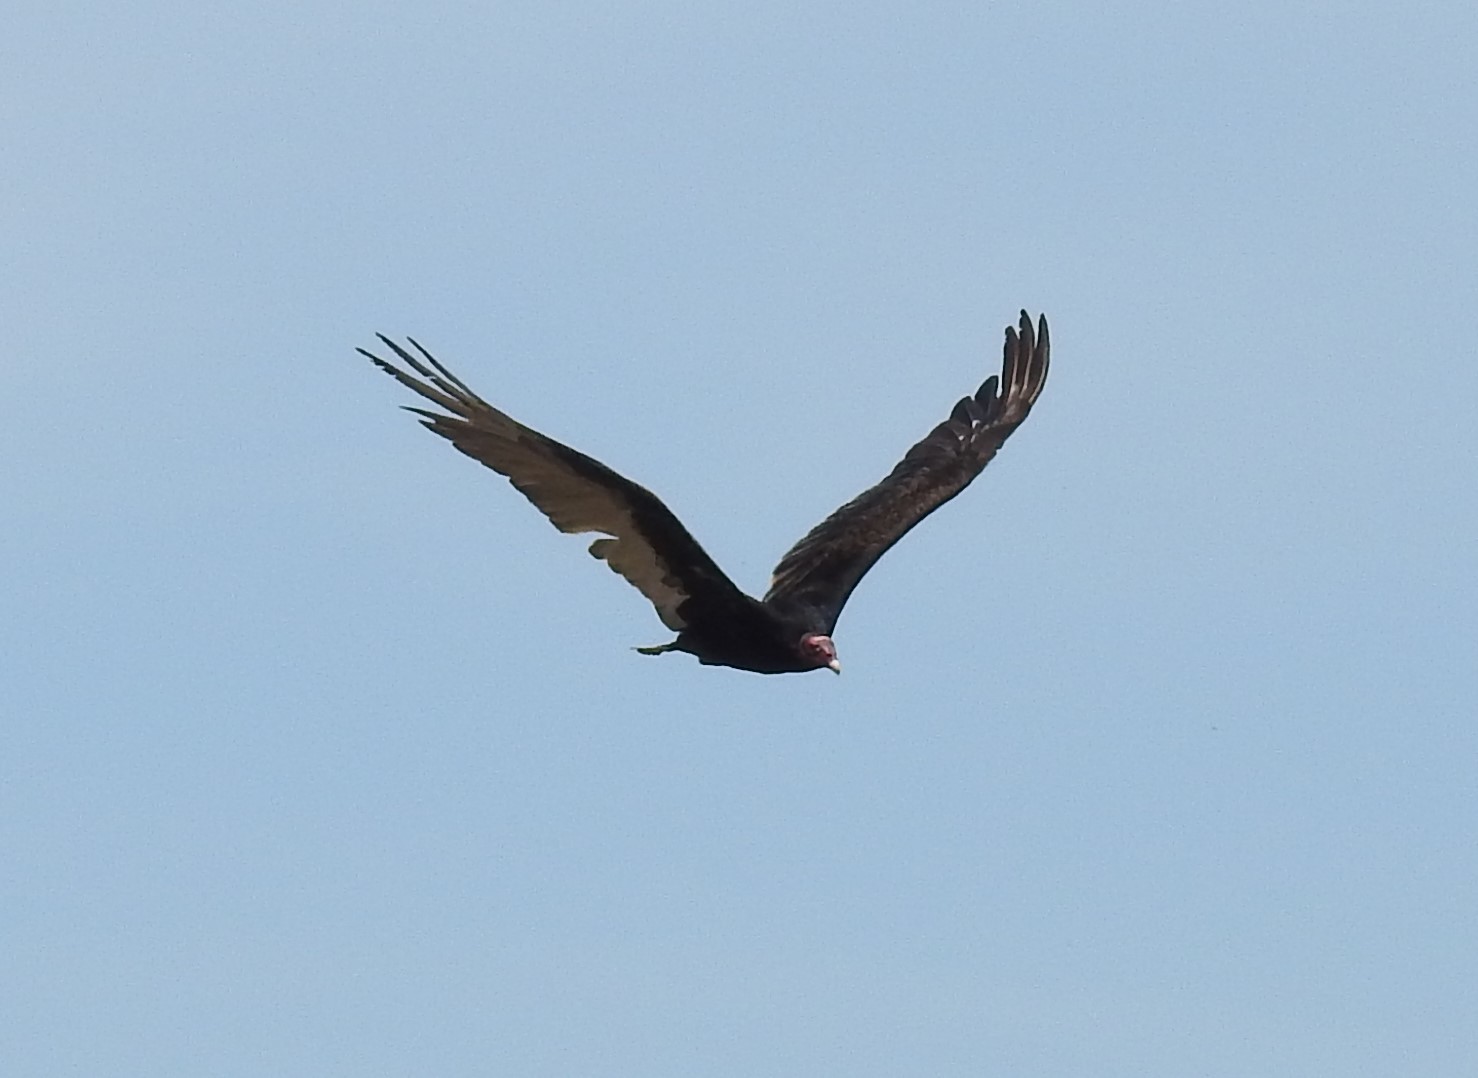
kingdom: Animalia
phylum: Chordata
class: Aves
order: Accipitriformes
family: Cathartidae
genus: Cathartes
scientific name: Cathartes aura
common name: Turkey vulture
